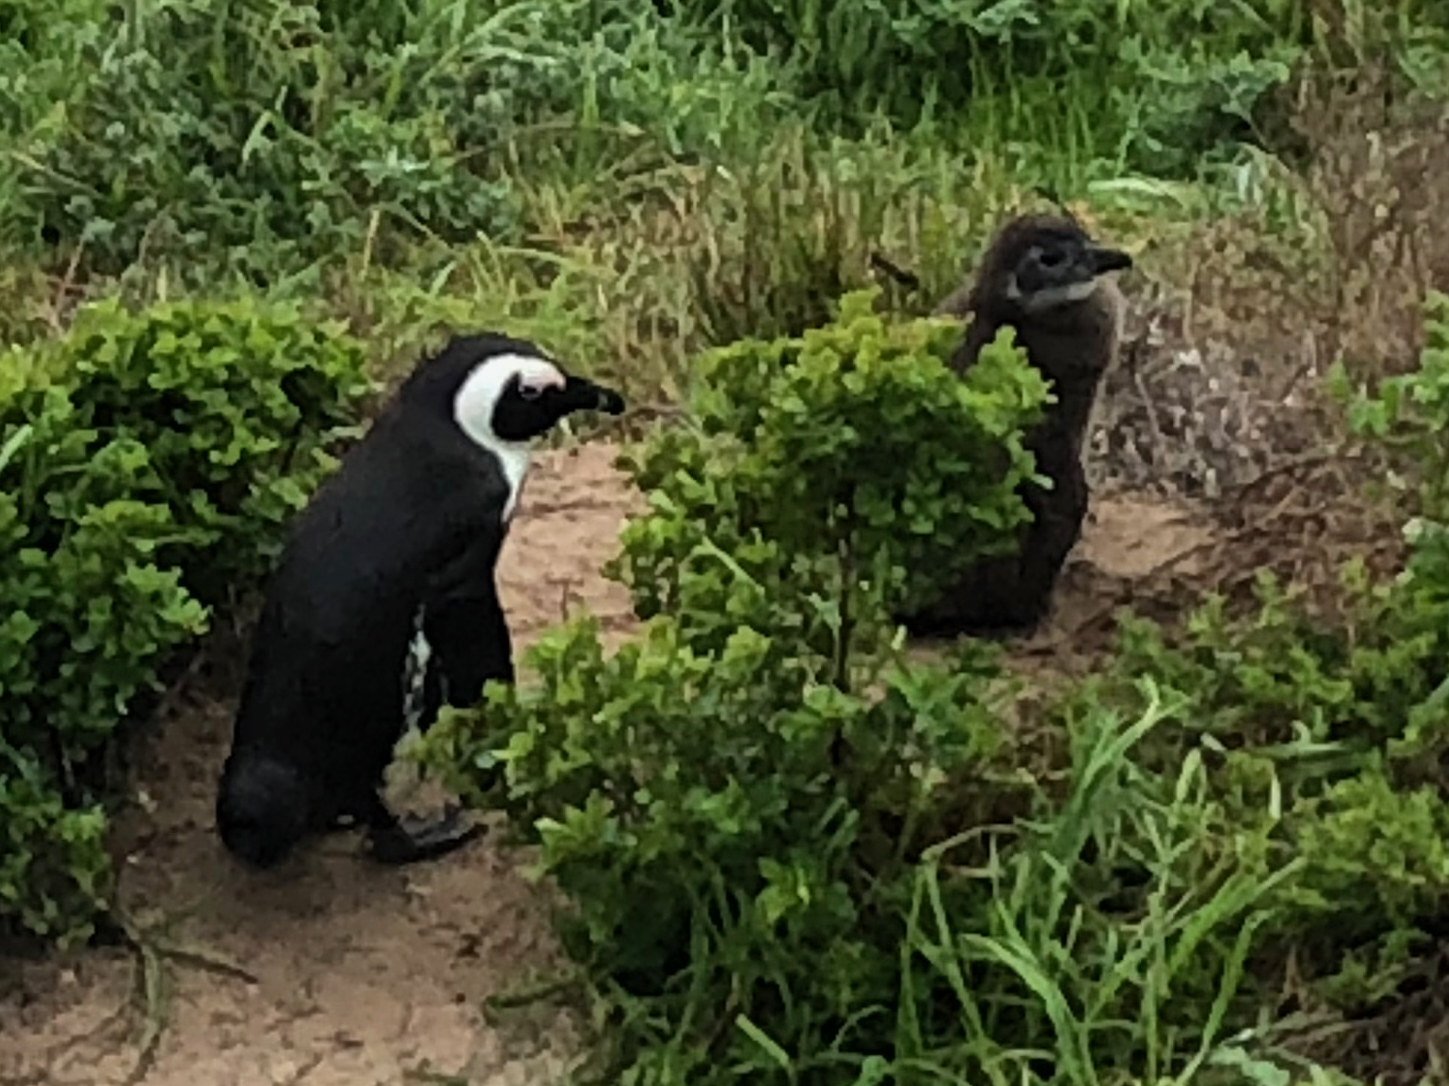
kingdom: Animalia
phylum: Chordata
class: Aves
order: Sphenisciformes
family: Spheniscidae
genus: Spheniscus
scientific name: Spheniscus demersus
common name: African penguin
